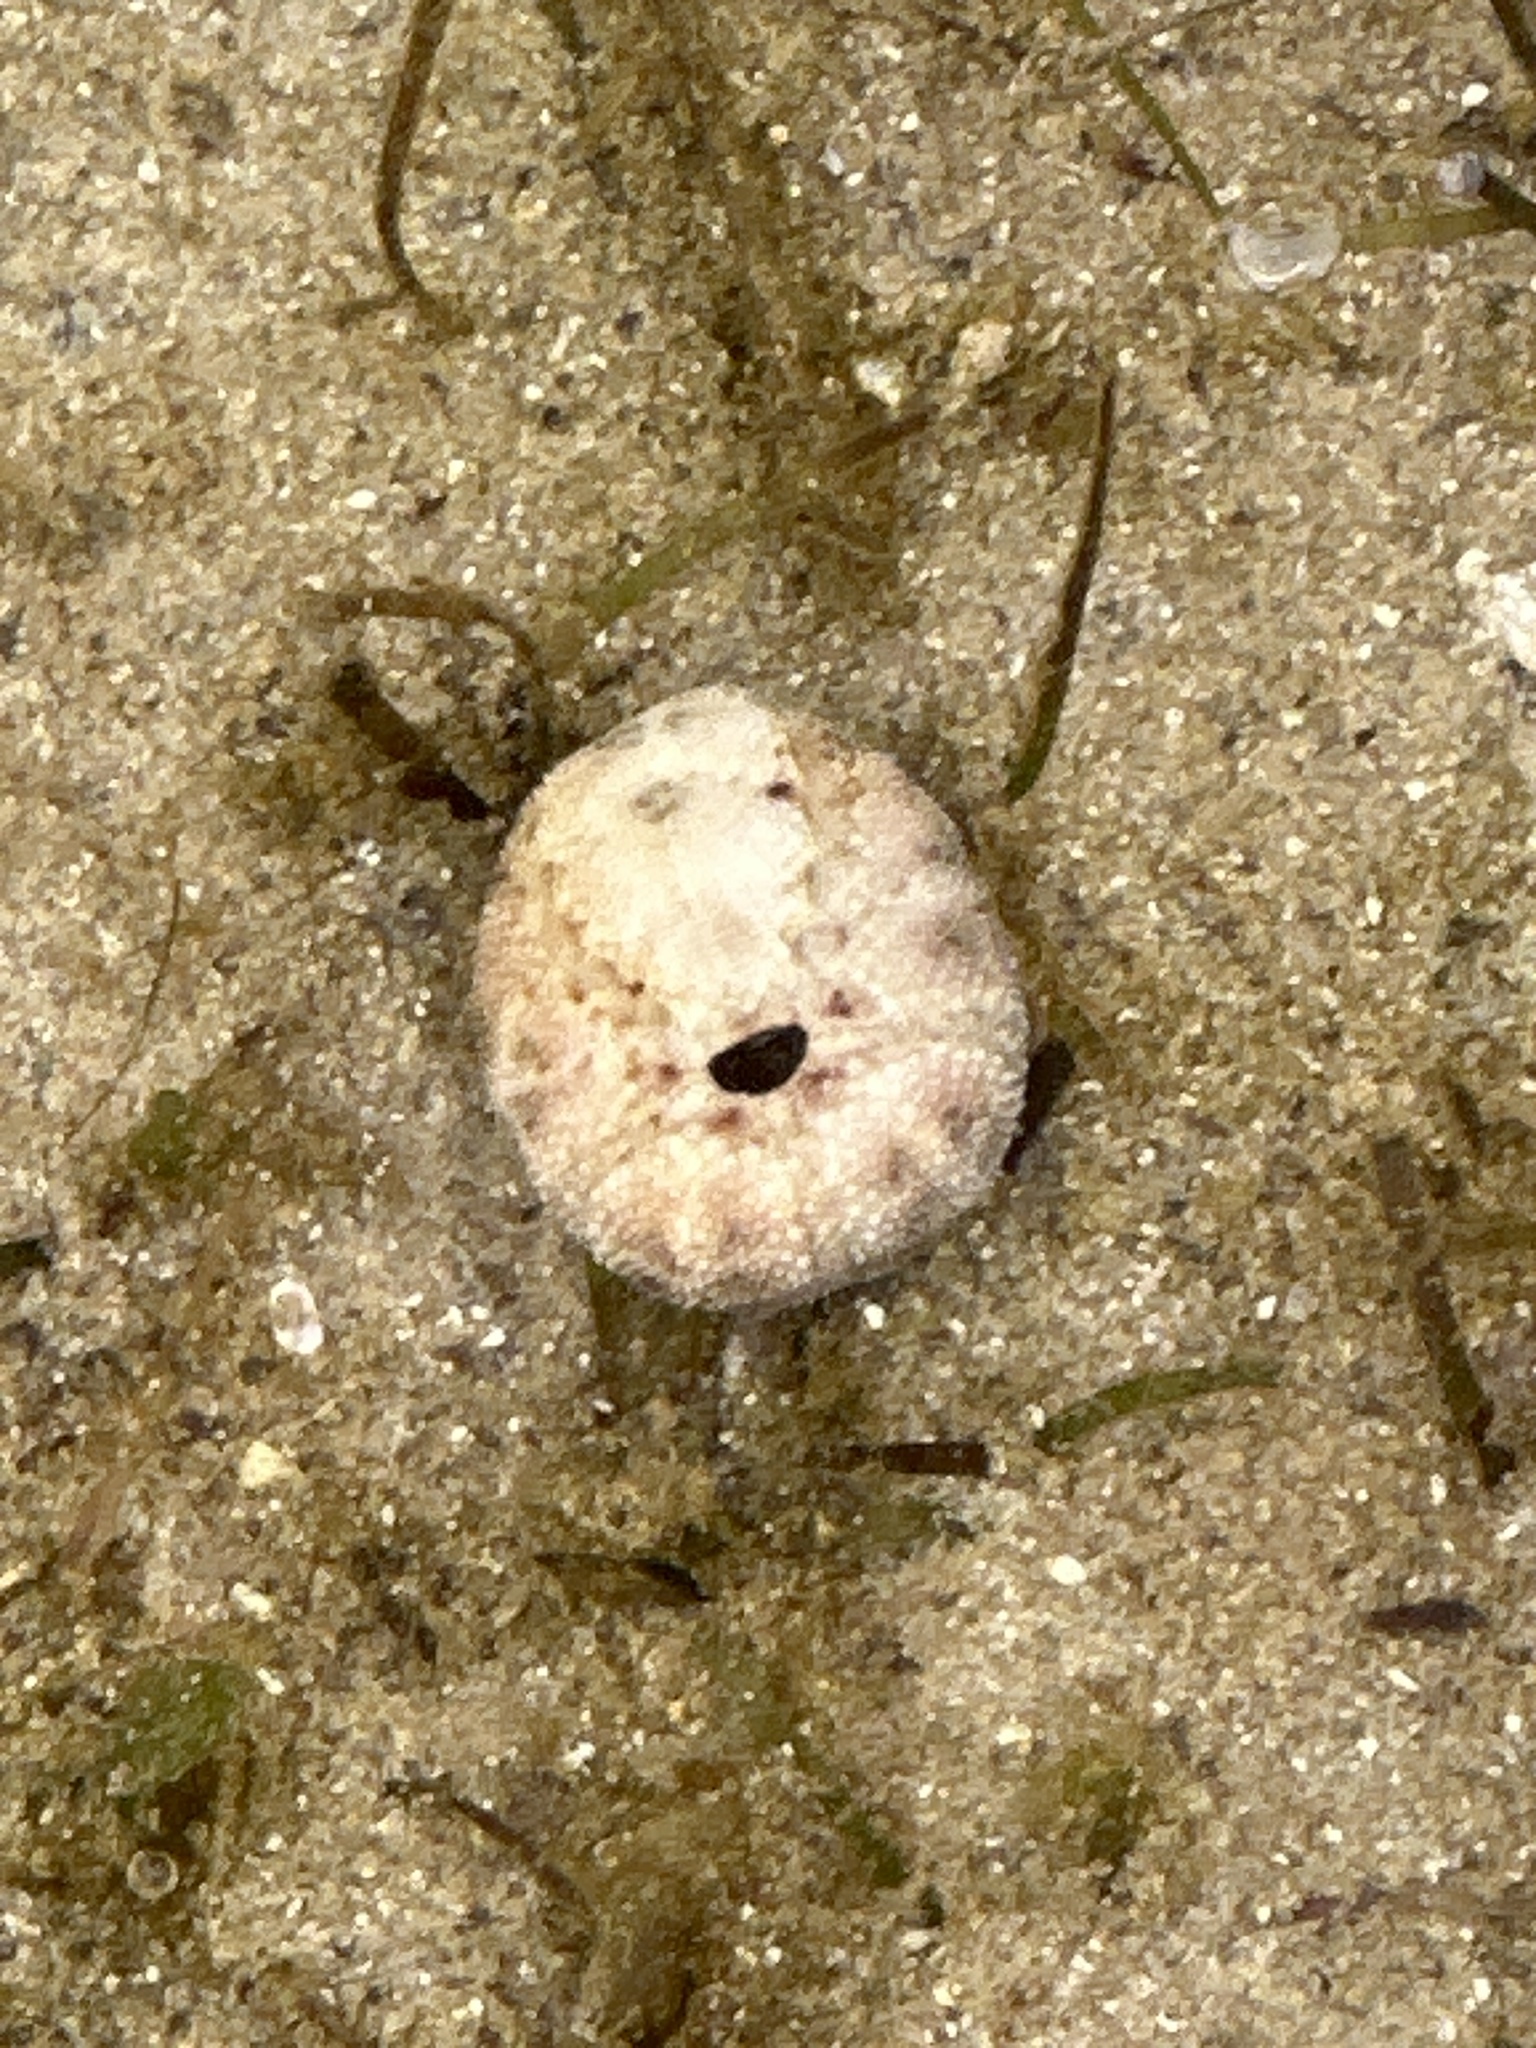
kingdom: Animalia
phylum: Echinodermata
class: Echinoidea
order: Spatangoida
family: Brissidae
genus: Brissus
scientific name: Brissus latecarinatus
